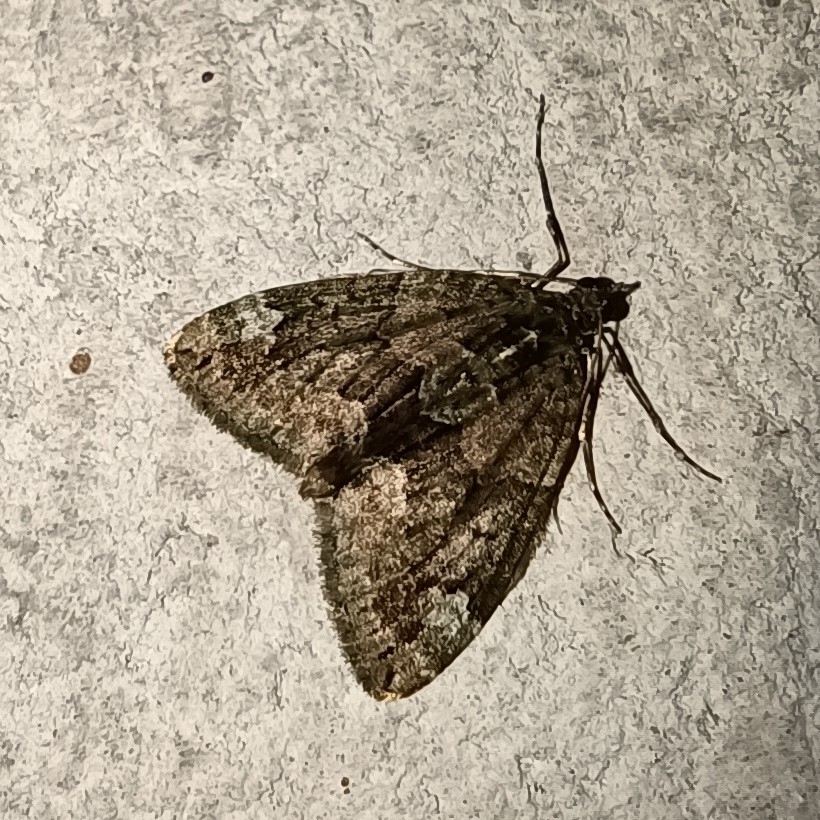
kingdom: Animalia
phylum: Arthropoda
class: Insecta
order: Lepidoptera
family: Geometridae
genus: Chloroclysta
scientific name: Chloroclysta siterata
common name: Red-green carpet
